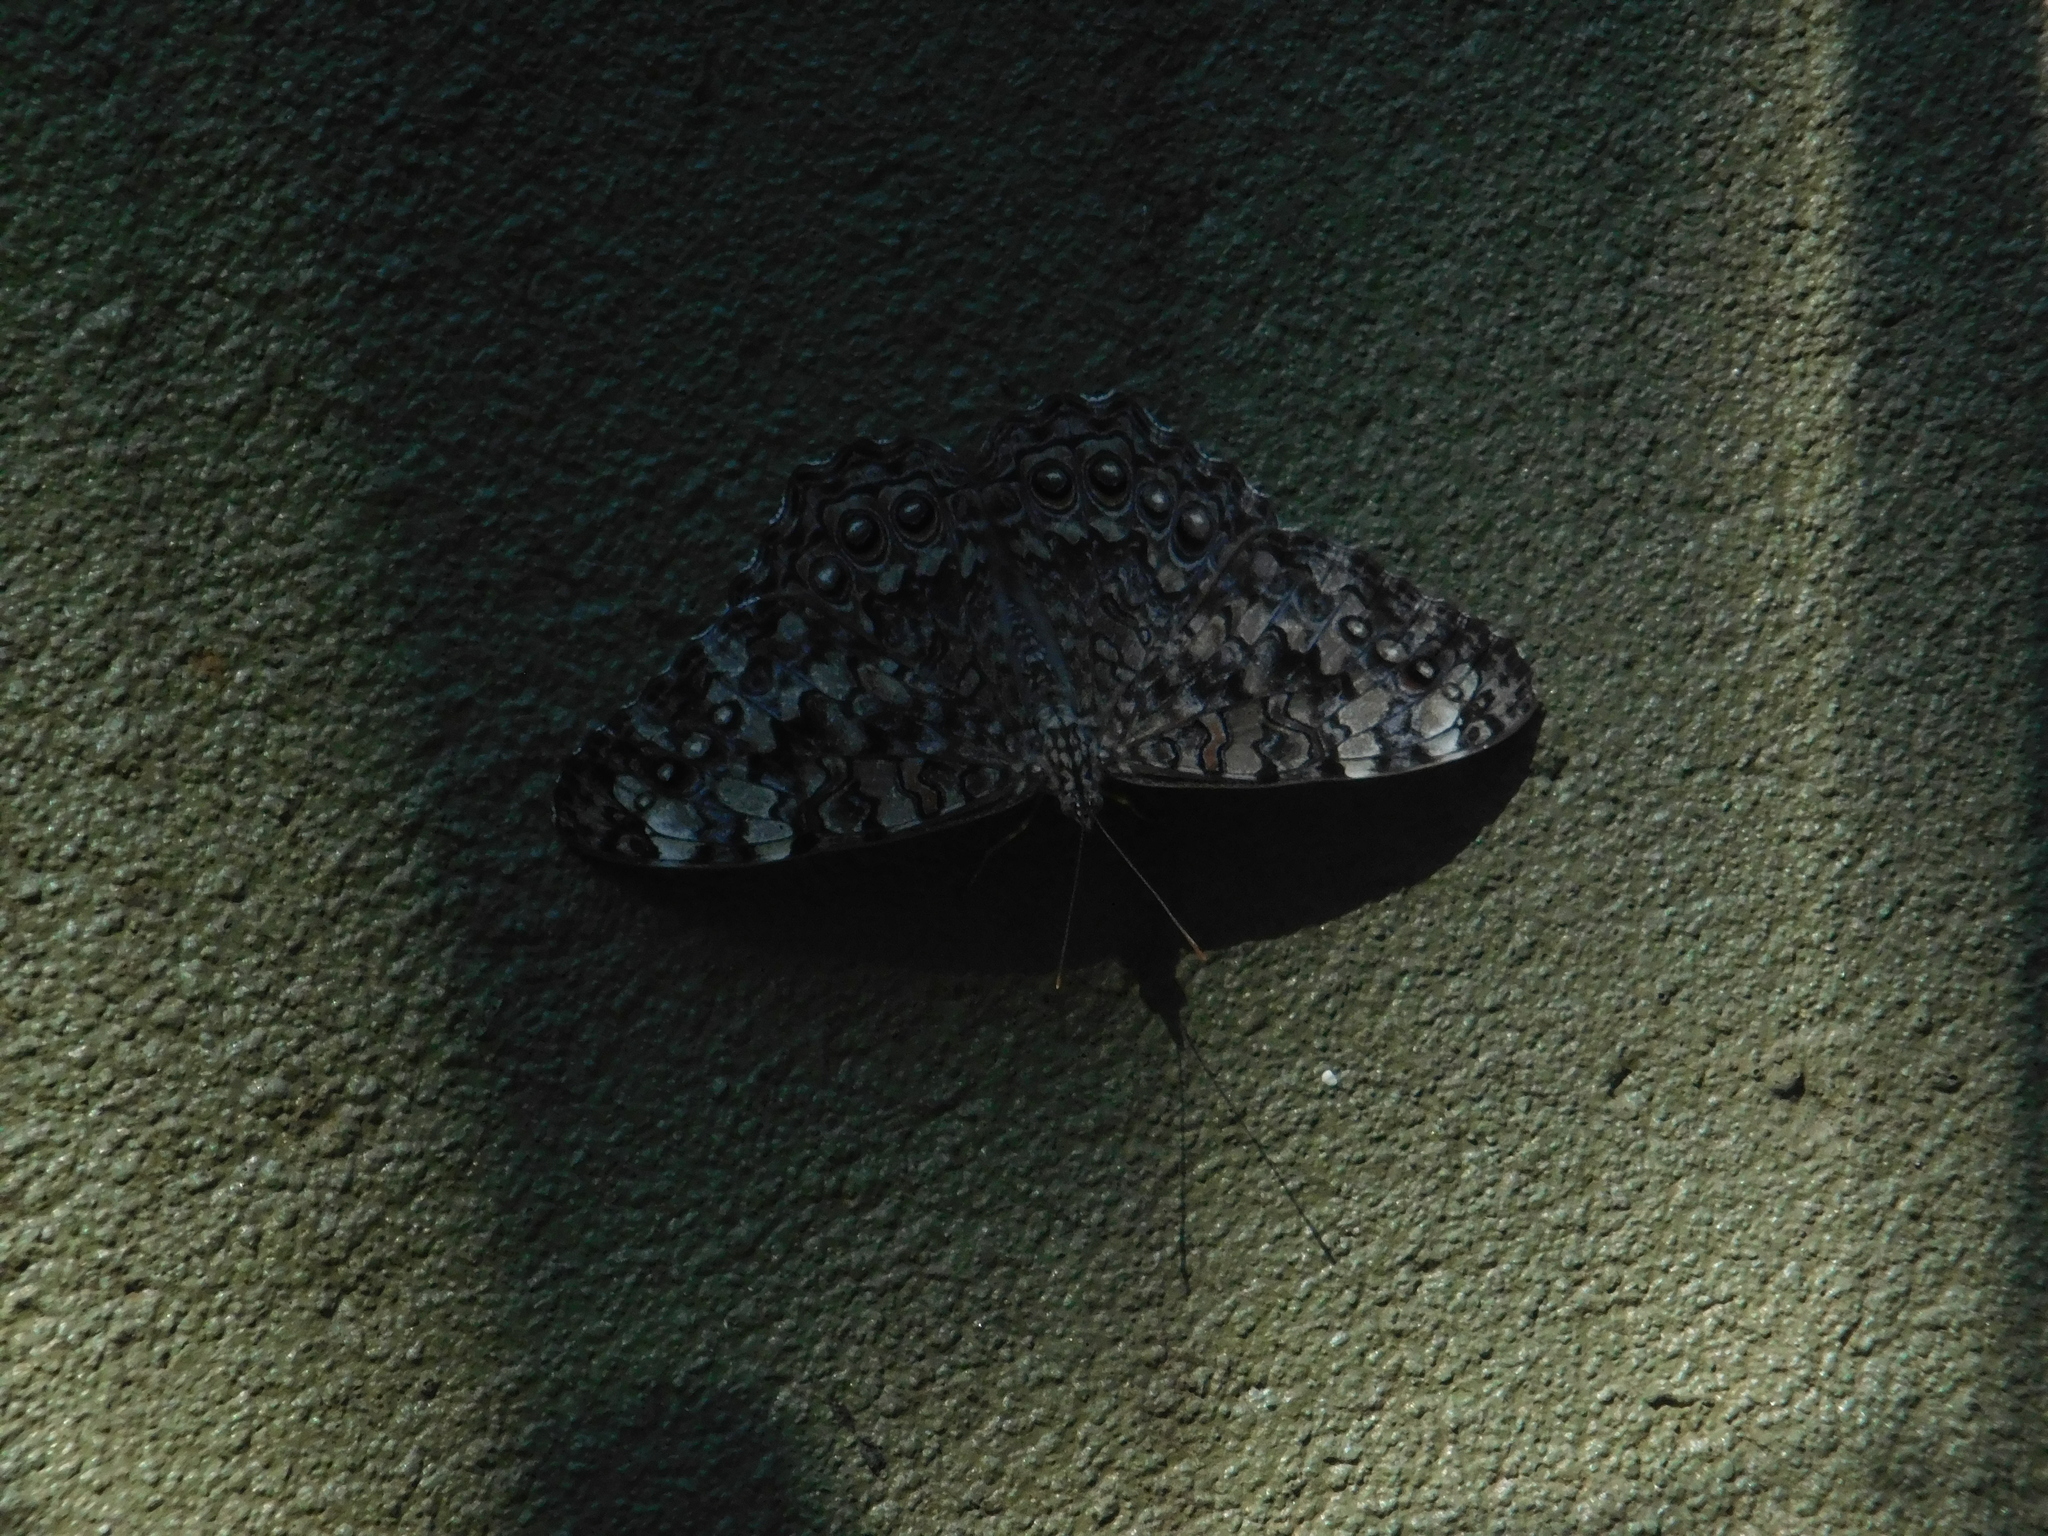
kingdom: Animalia
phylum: Arthropoda
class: Insecta
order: Lepidoptera
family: Nymphalidae
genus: Hamadryas
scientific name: Hamadryas februa
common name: Gray cracker
